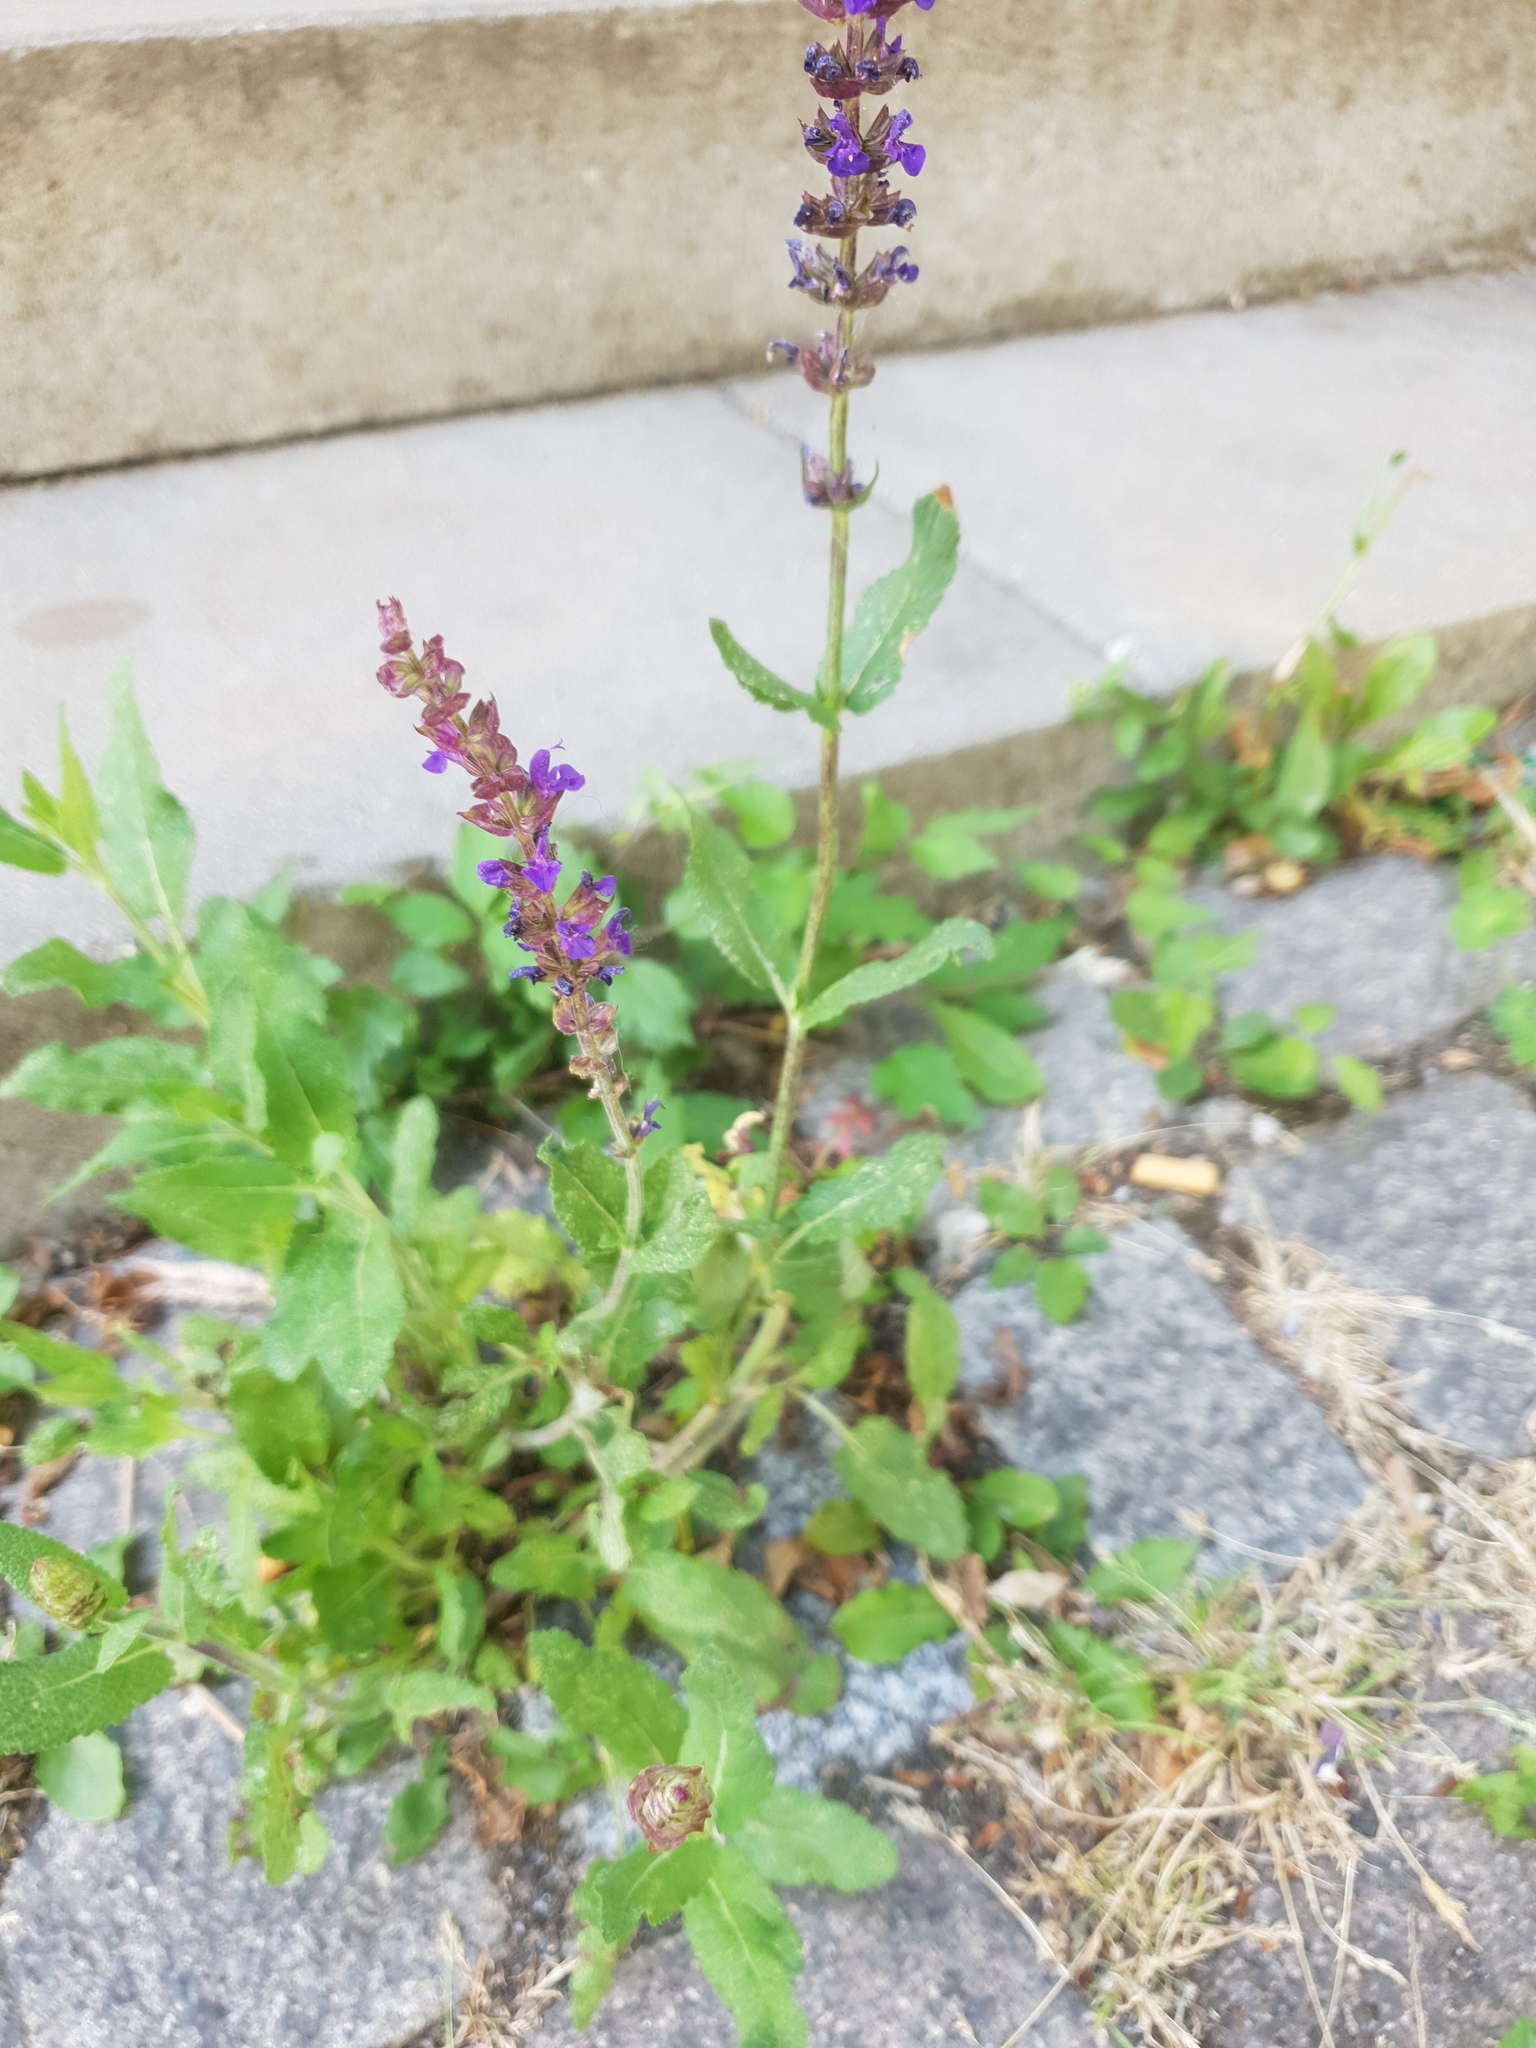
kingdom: Plantae
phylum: Tracheophyta
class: Magnoliopsida
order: Lamiales
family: Lamiaceae
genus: Salvia
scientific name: Salvia nemorosa
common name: Balkan clary
